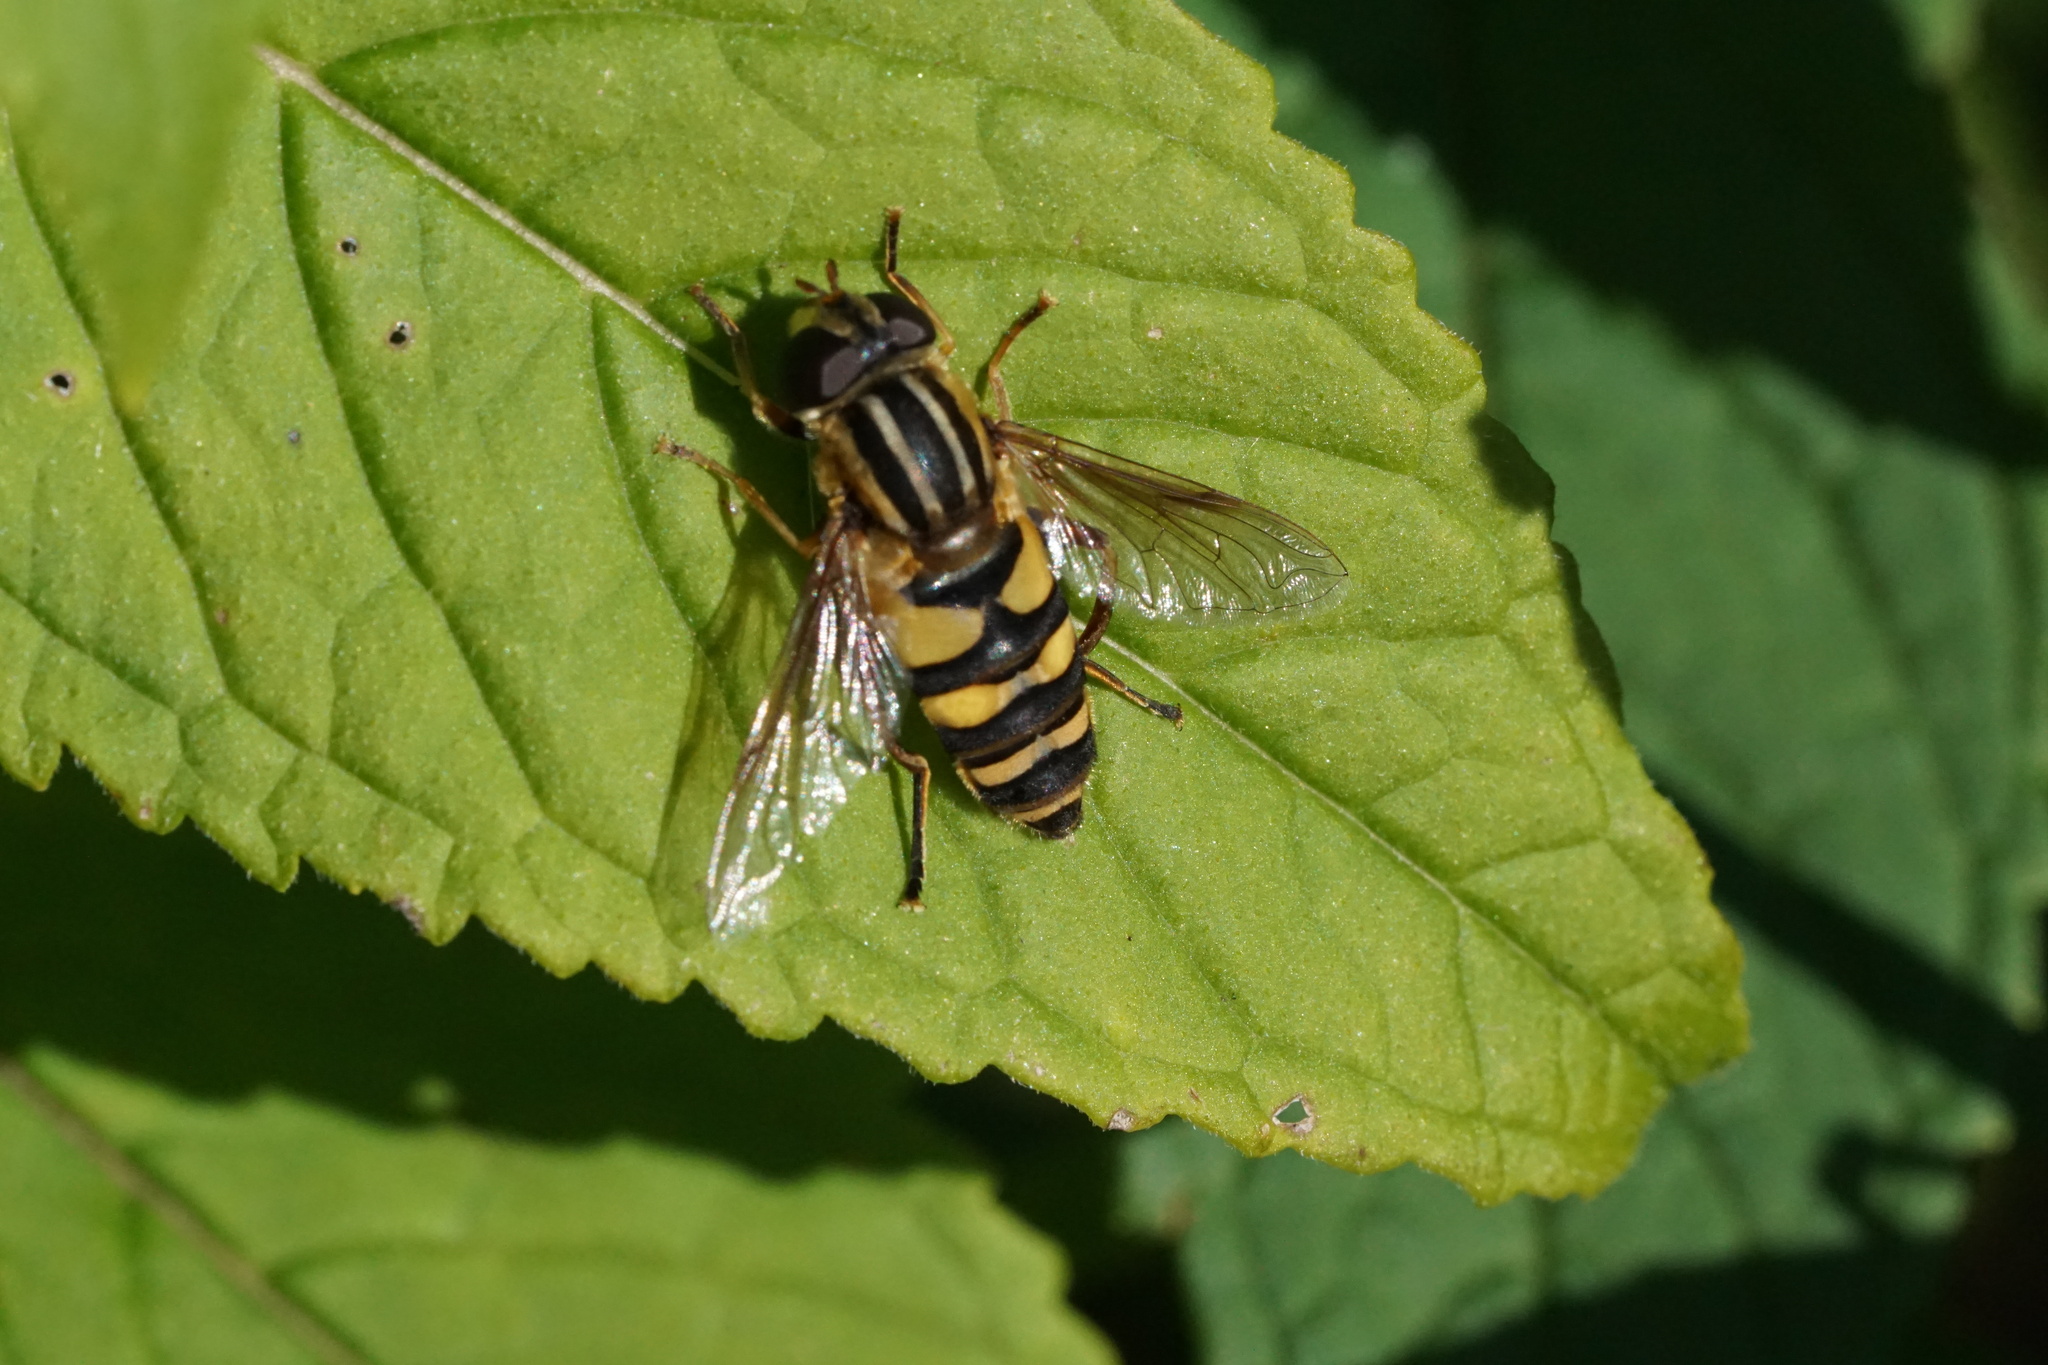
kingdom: Animalia
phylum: Arthropoda
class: Insecta
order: Diptera
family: Syrphidae
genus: Helophilus
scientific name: Helophilus fasciatus
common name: Narrow-headed marsh fly
